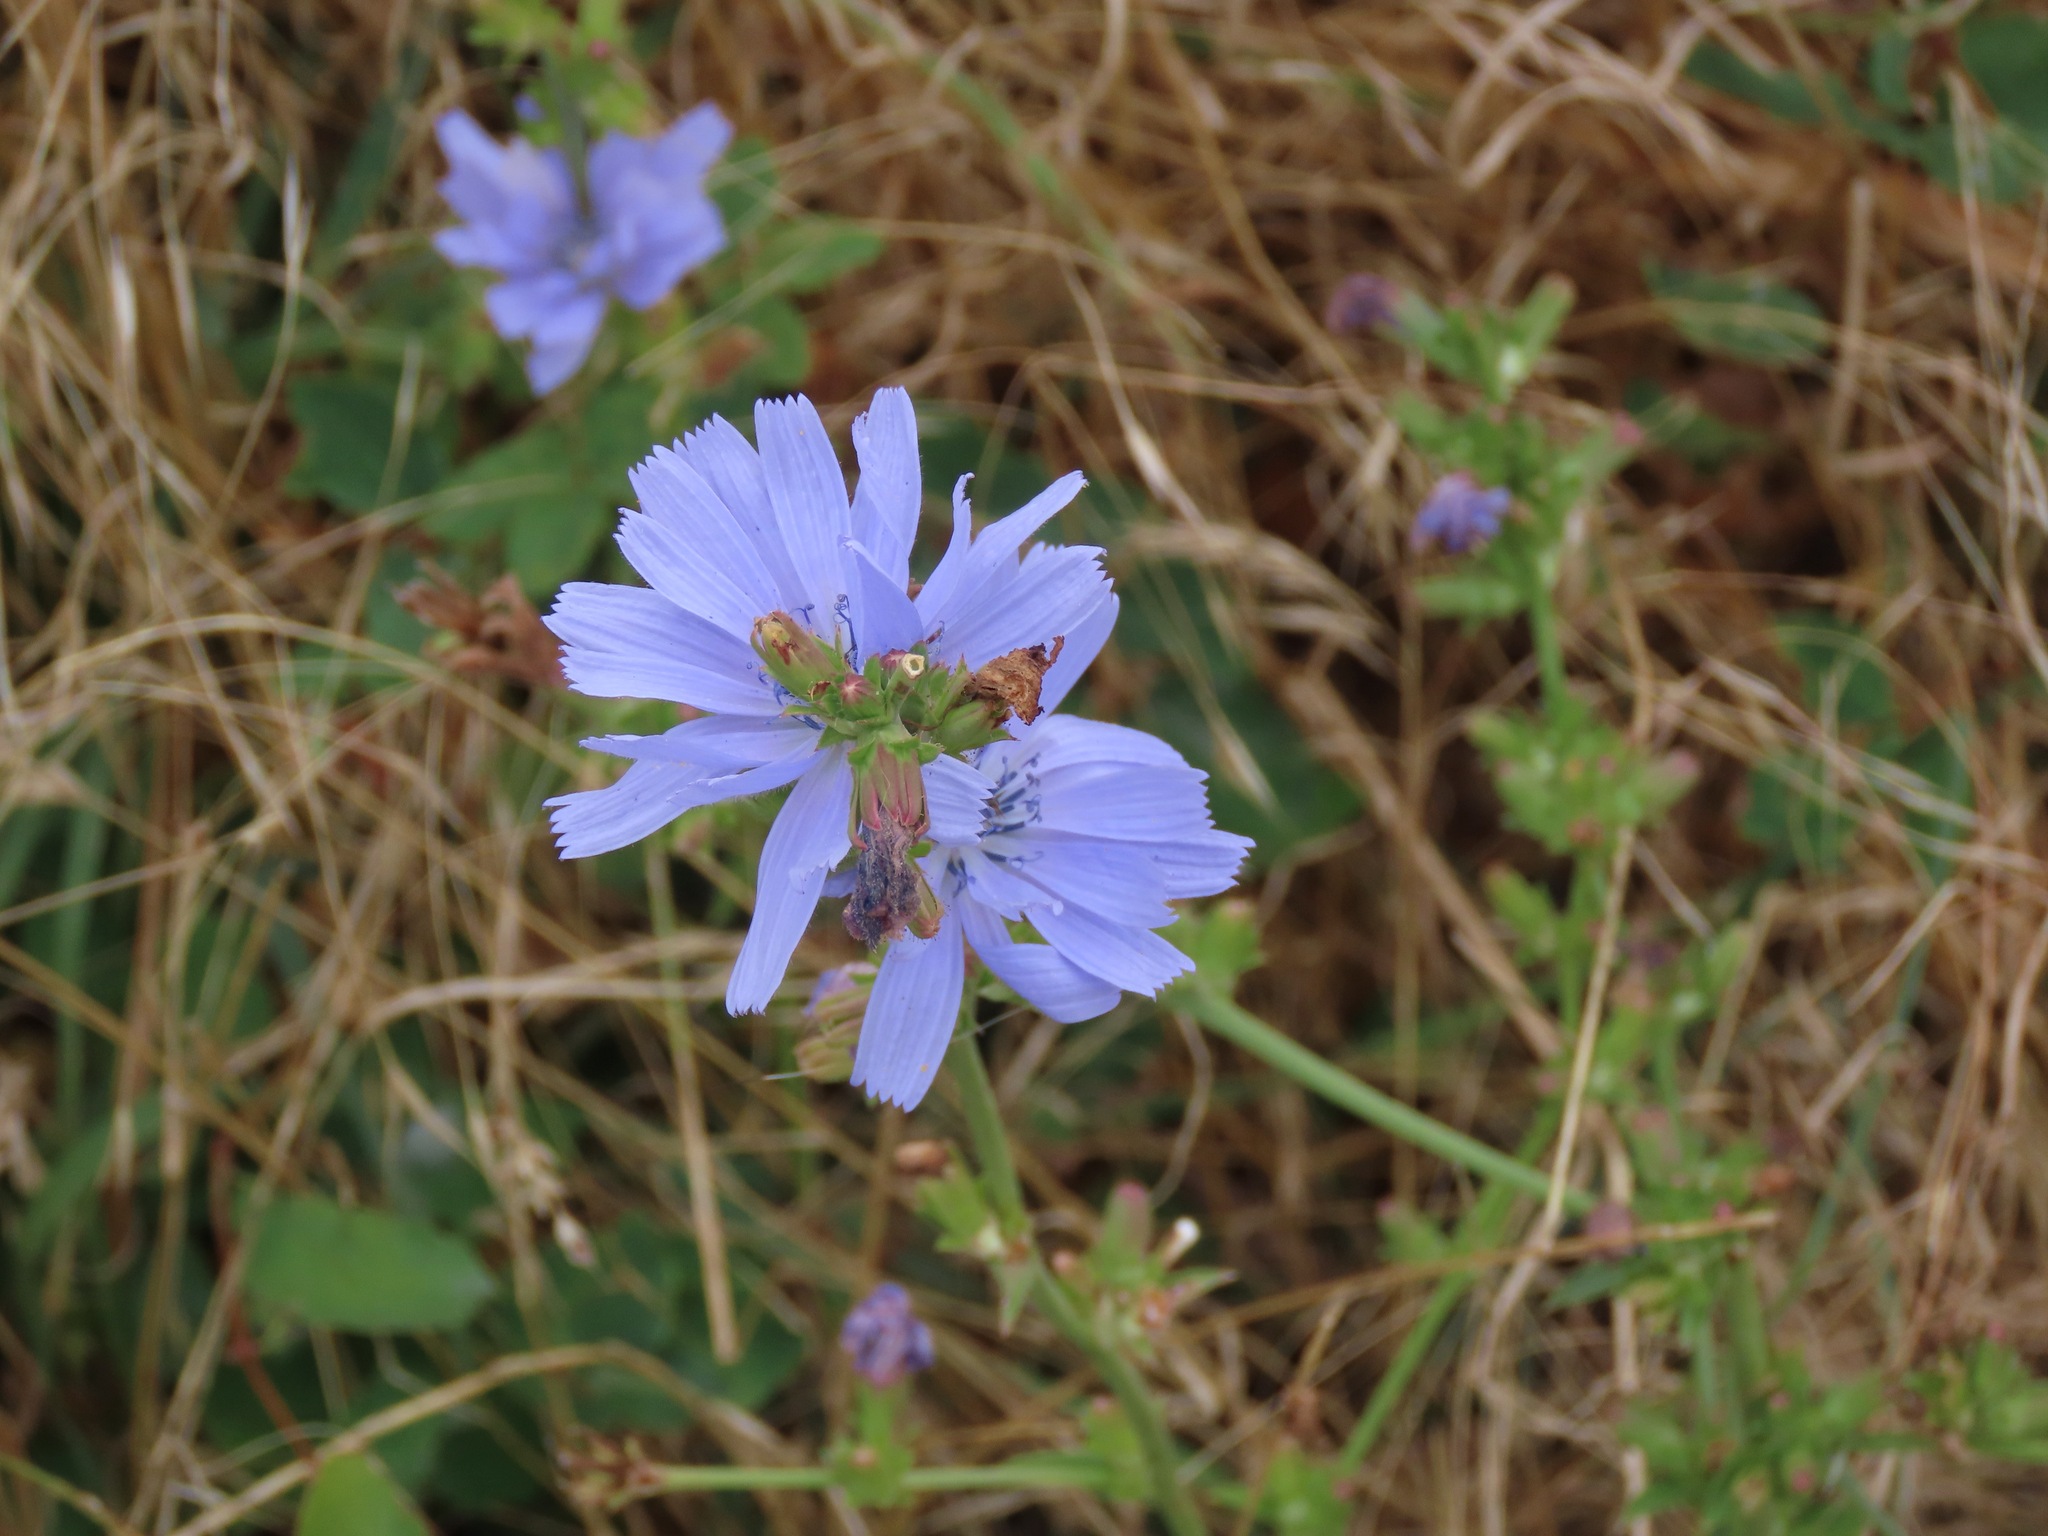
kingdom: Plantae
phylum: Tracheophyta
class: Magnoliopsida
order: Asterales
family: Asteraceae
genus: Cichorium
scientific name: Cichorium intybus
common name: Chicory
